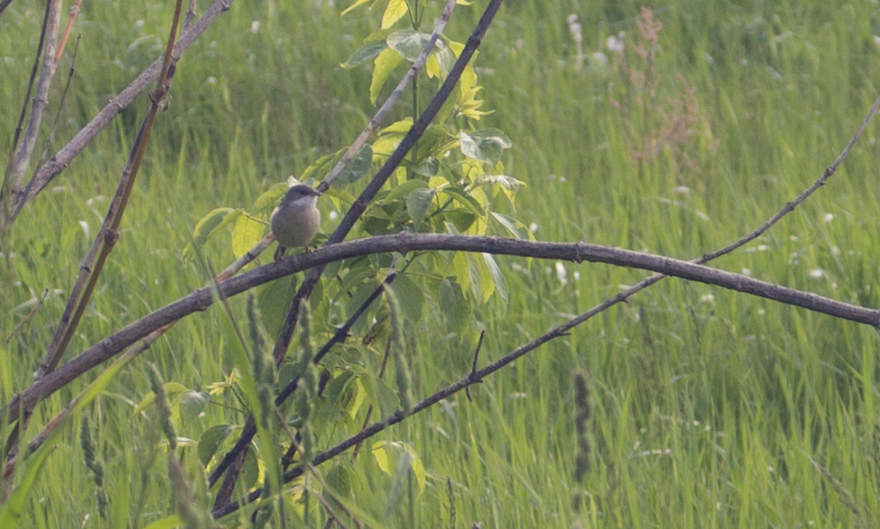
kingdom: Animalia
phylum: Chordata
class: Aves
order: Passeriformes
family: Sylviidae
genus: Sylvia
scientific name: Sylvia communis
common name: Common whitethroat
